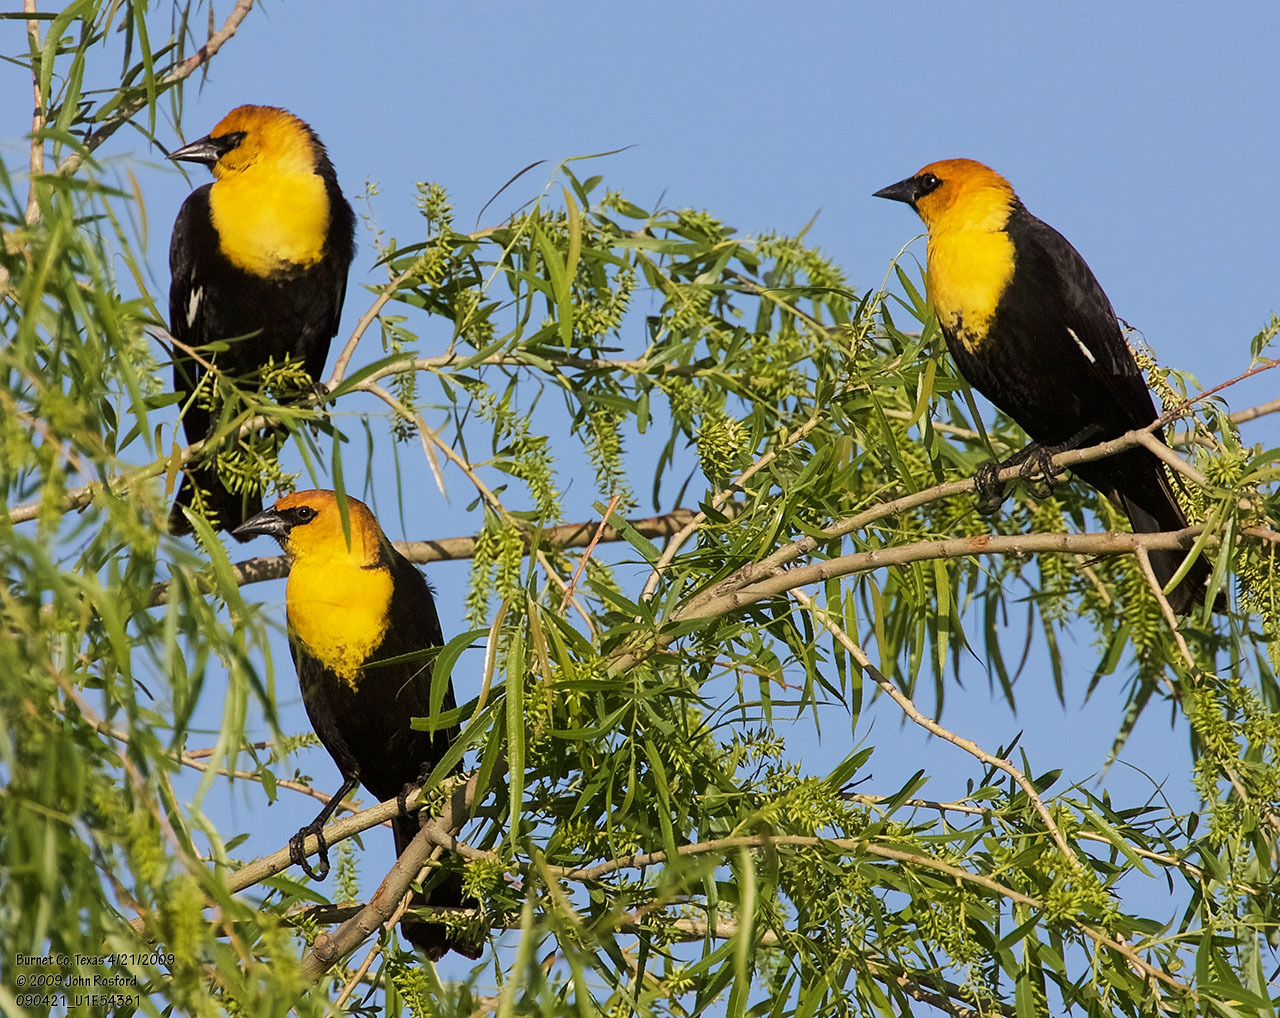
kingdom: Animalia
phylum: Chordata
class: Aves
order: Passeriformes
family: Icteridae
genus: Xanthocephalus
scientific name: Xanthocephalus xanthocephalus
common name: Yellow-headed blackbird
